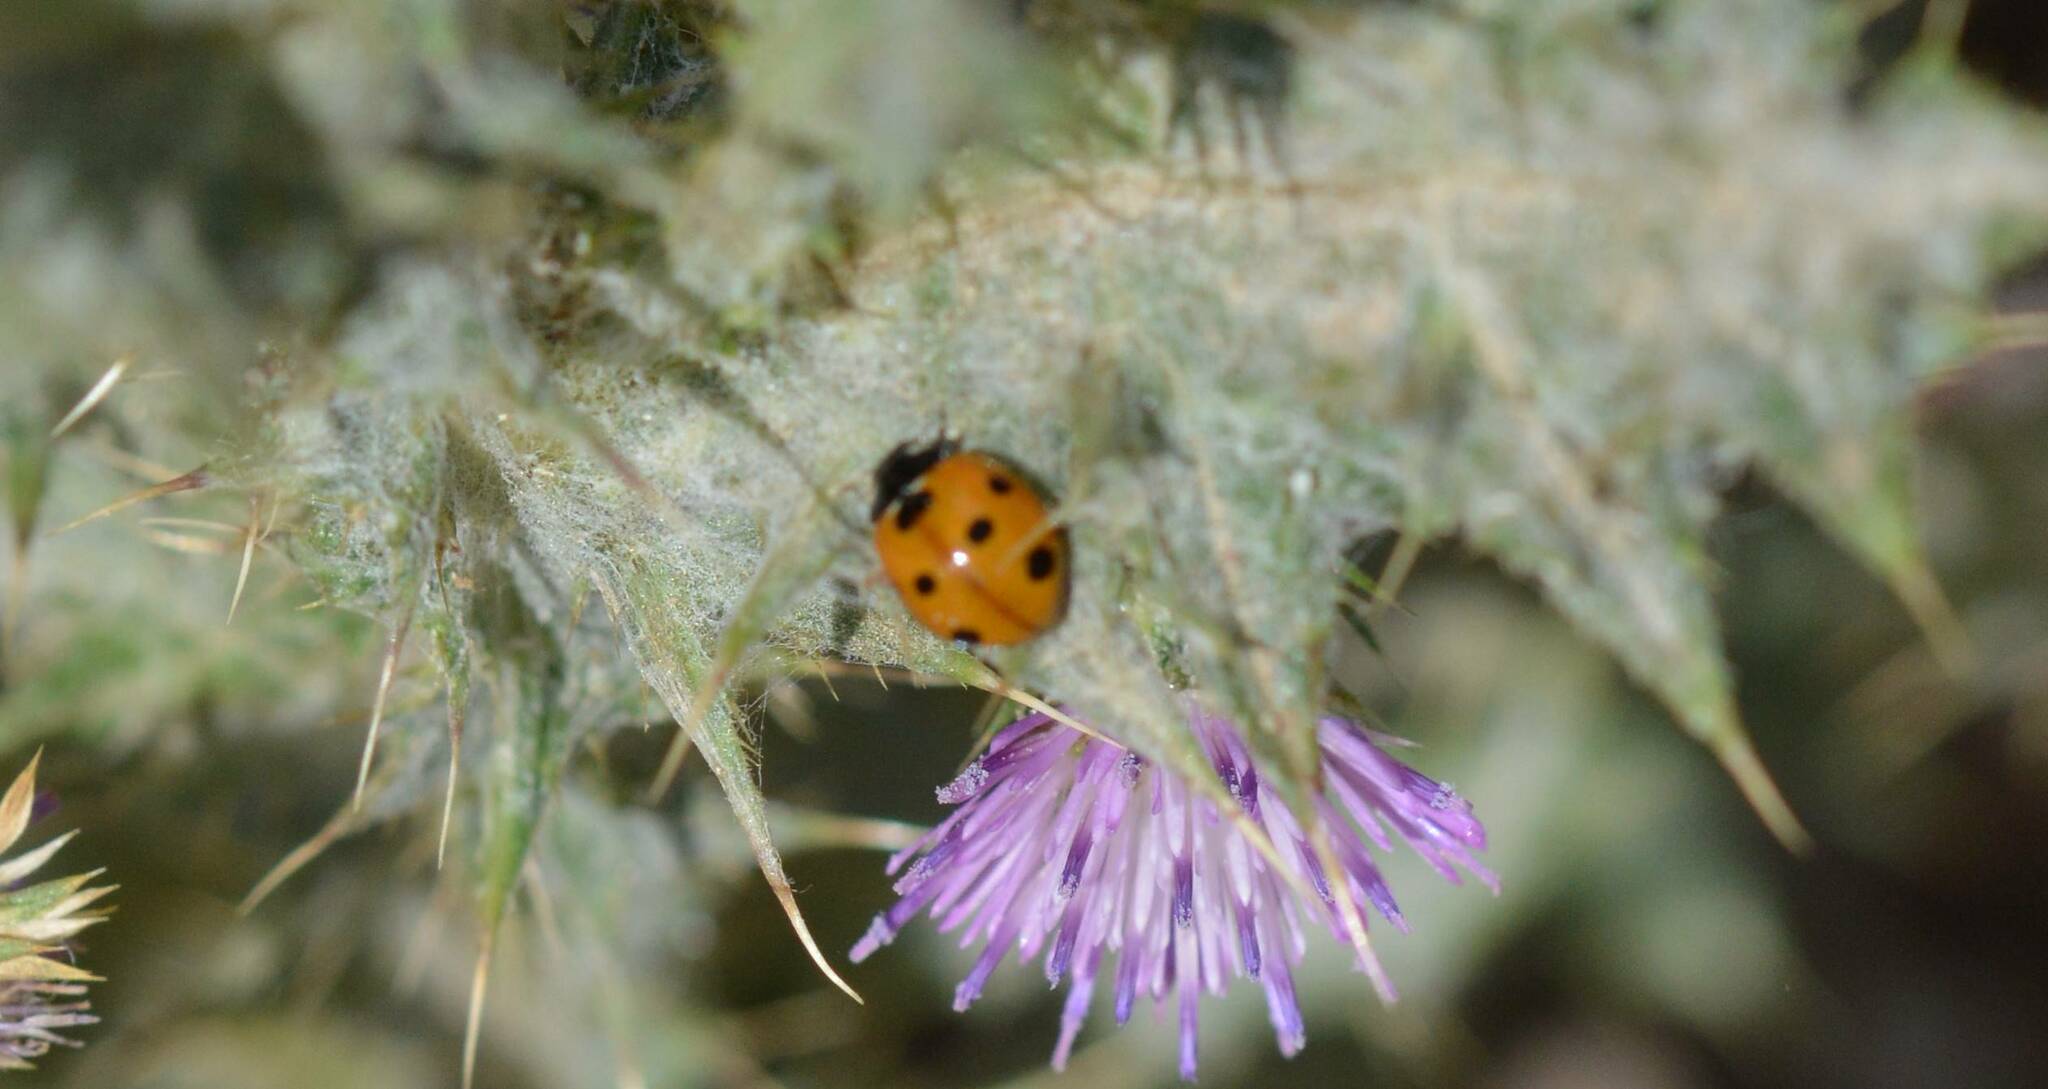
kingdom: Animalia
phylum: Arthropoda
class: Insecta
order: Coleoptera
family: Coccinellidae
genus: Coccinella
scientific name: Coccinella algerica
